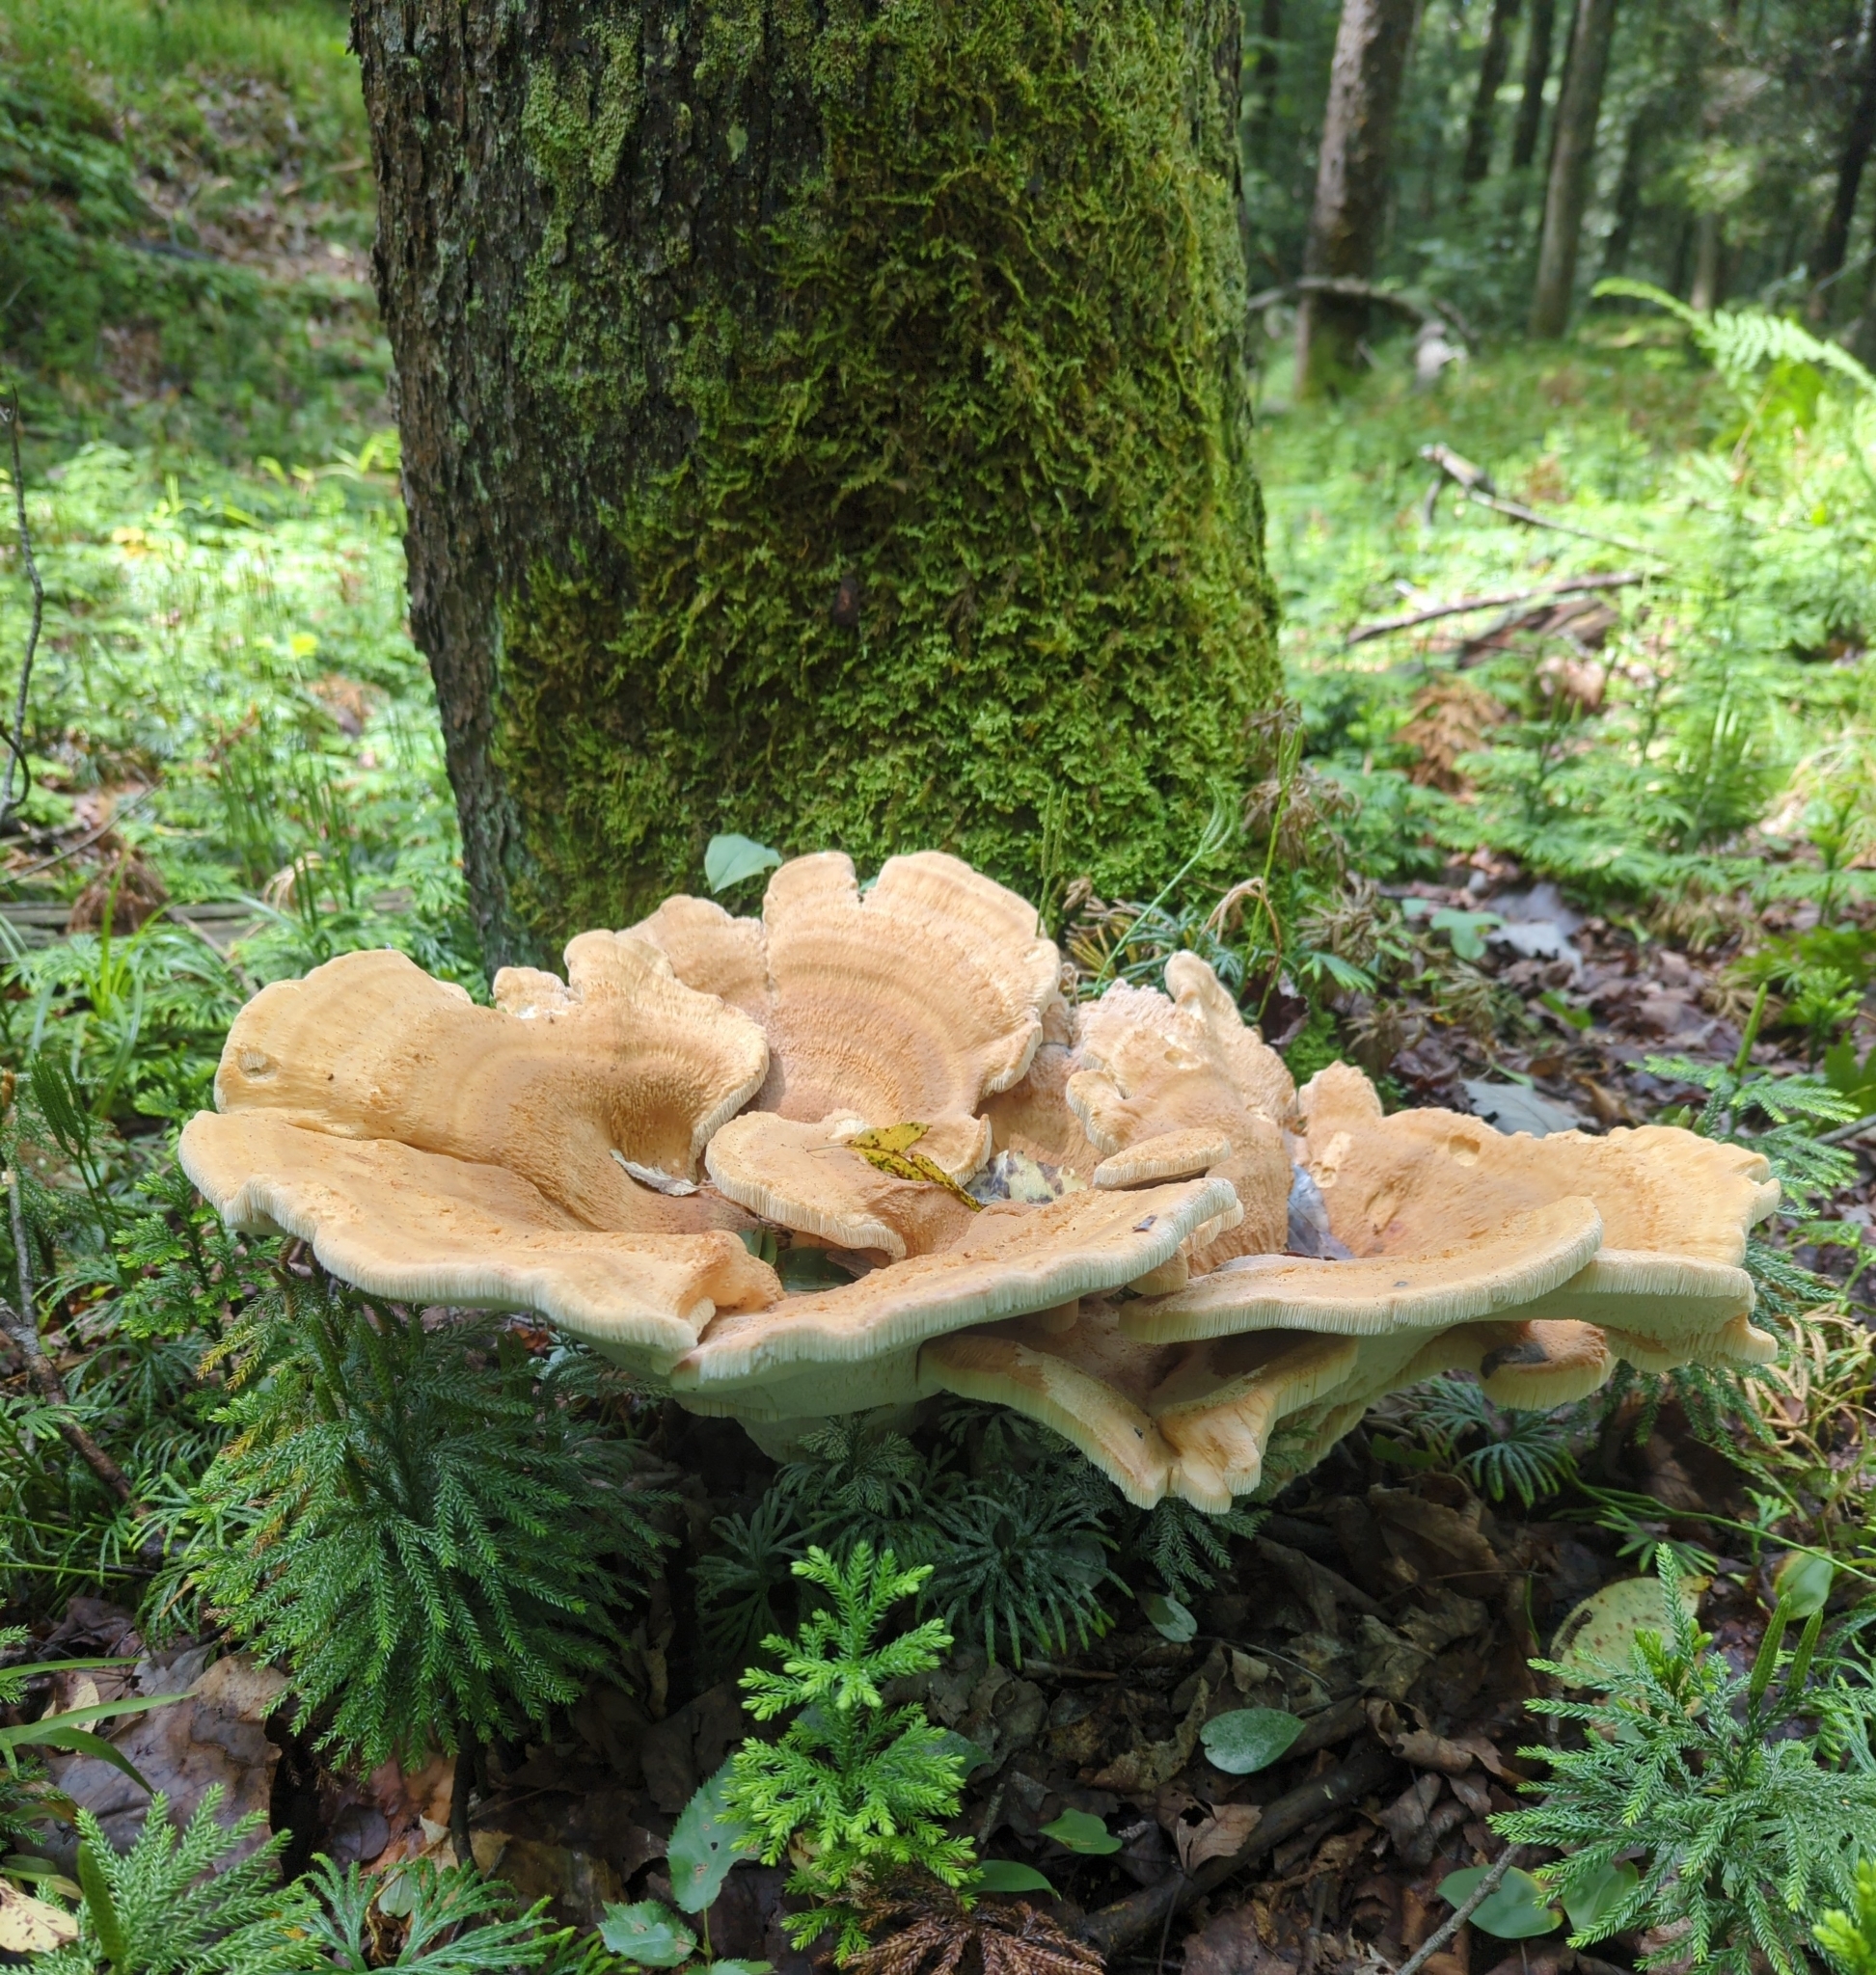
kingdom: Fungi
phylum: Basidiomycota
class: Agaricomycetes
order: Russulales
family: Bondarzewiaceae
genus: Bondarzewia
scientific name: Bondarzewia berkeleyi
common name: Berkeley's polypore
